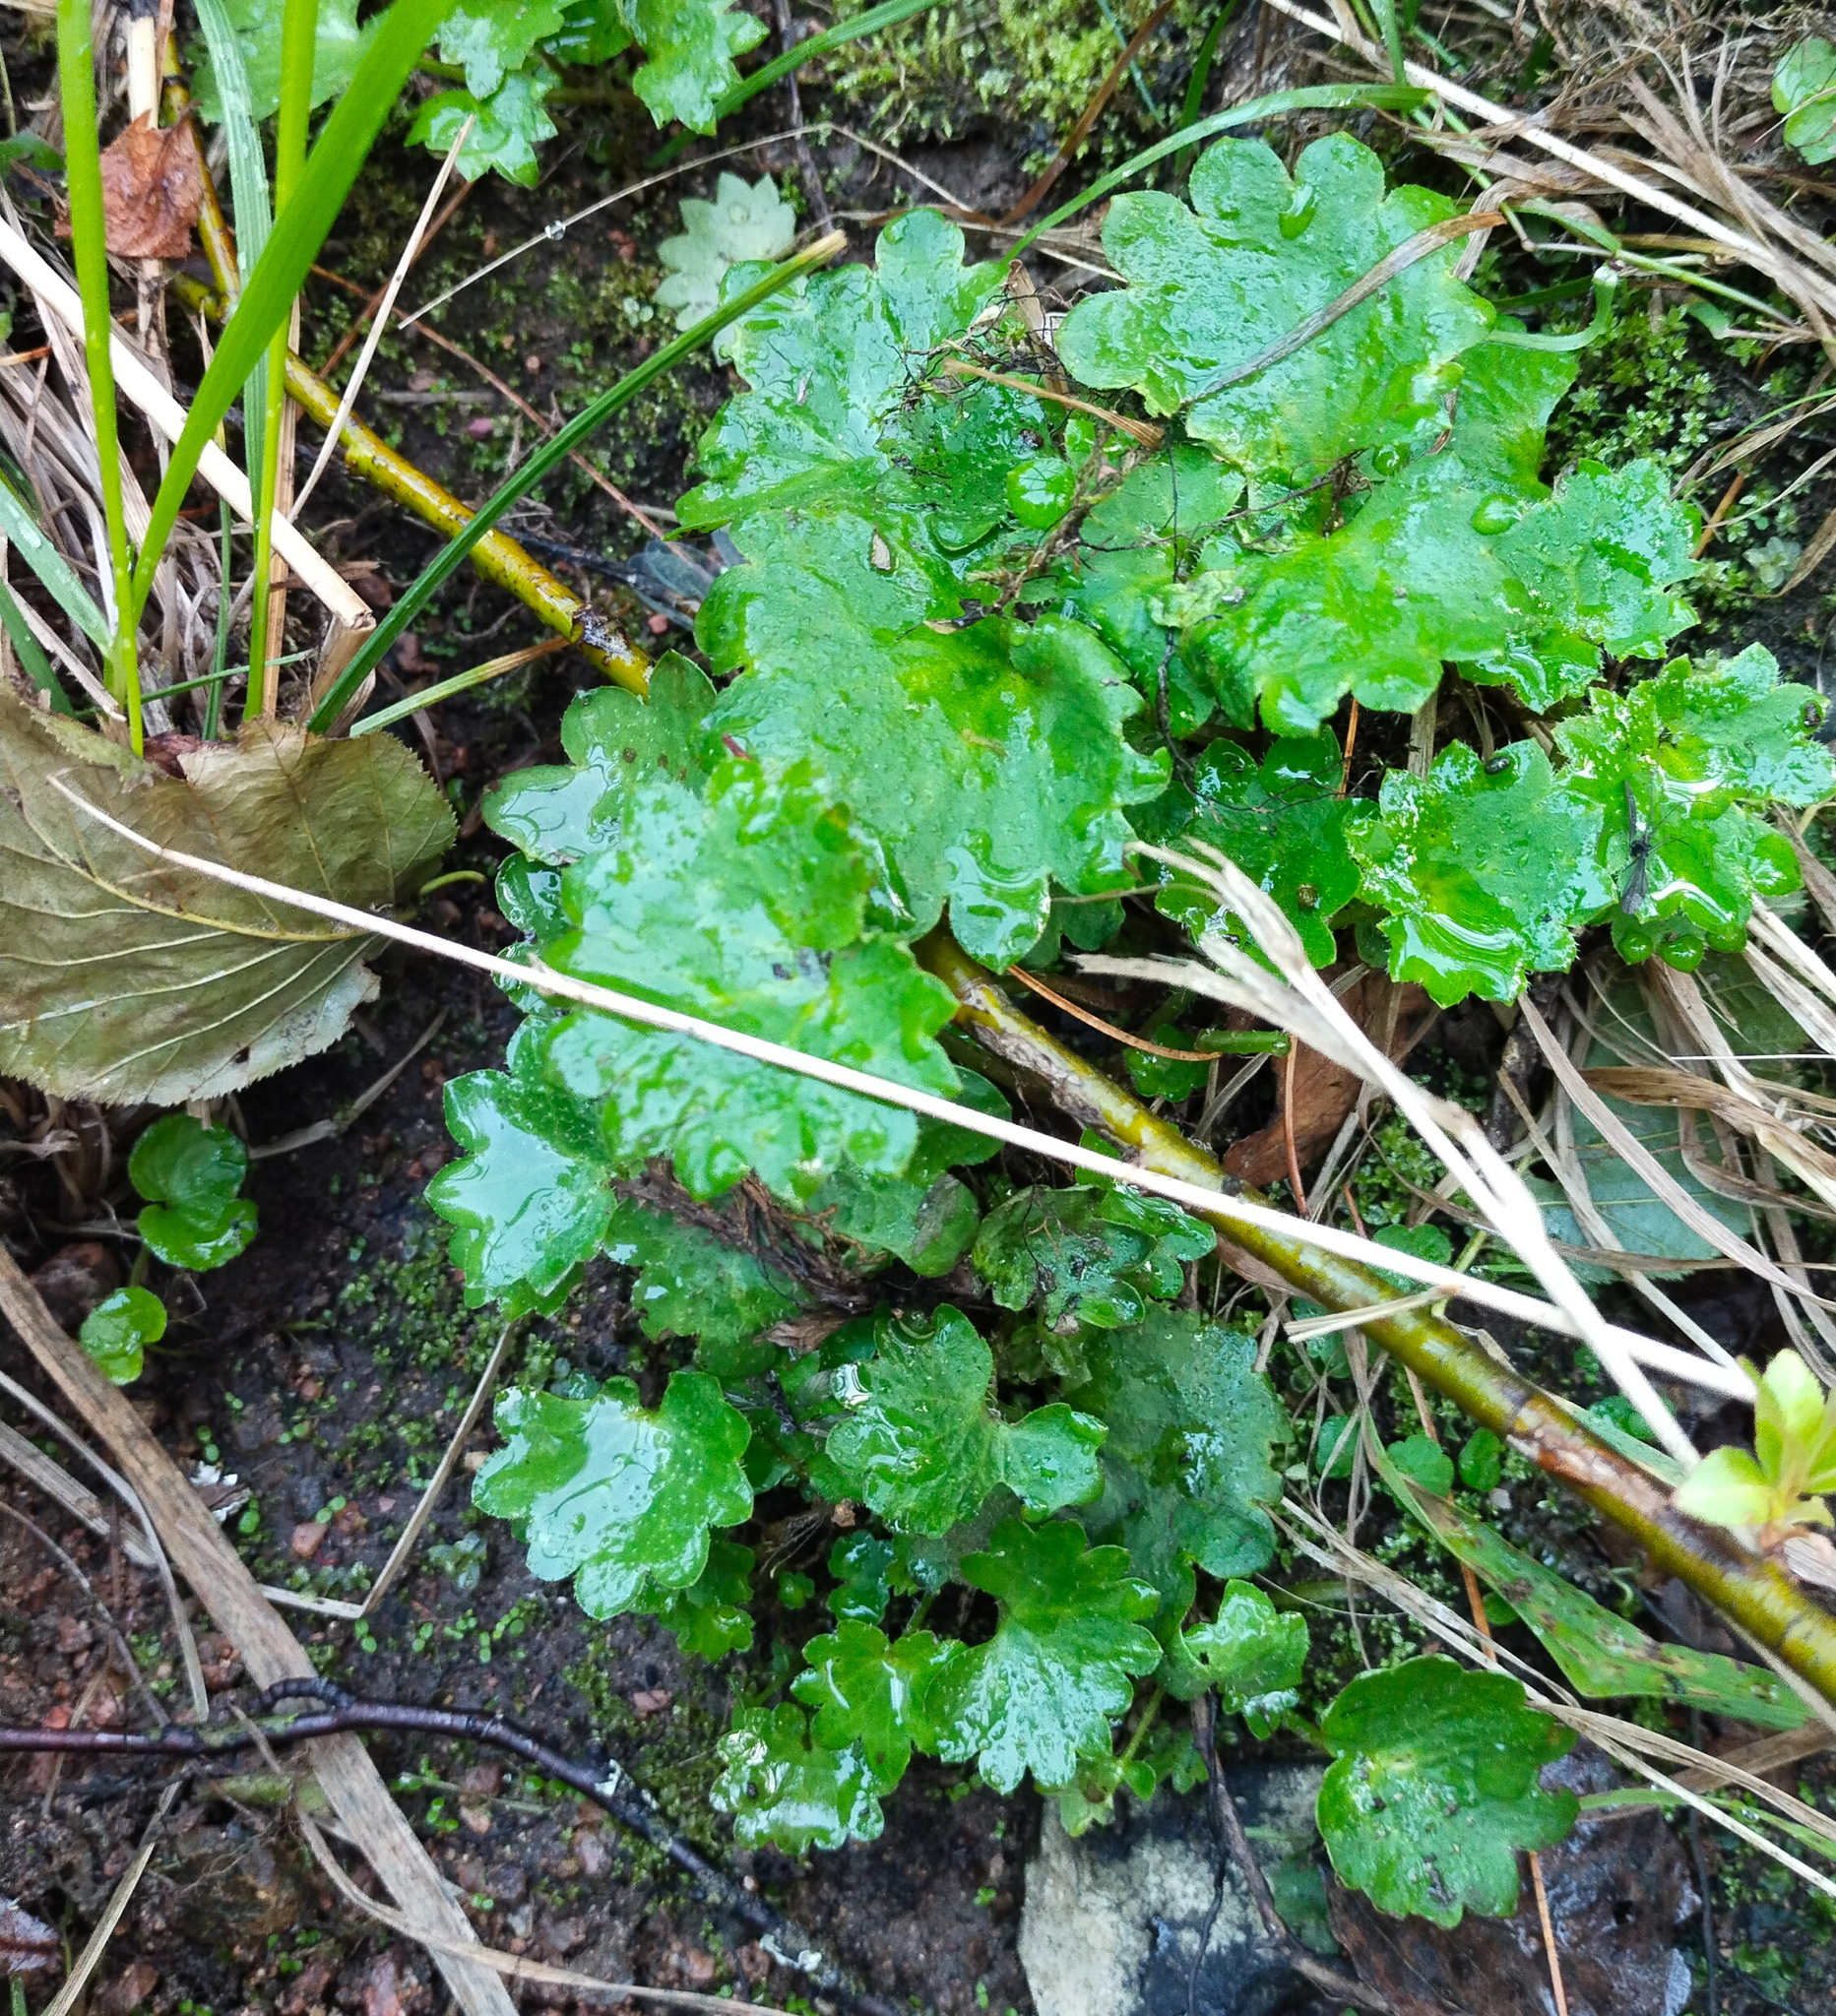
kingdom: Plantae
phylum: Tracheophyta
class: Magnoliopsida
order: Saxifragales
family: Saxifragaceae
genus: Micranthes
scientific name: Micranthes nelsoniana
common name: Nelson's saxifrage
